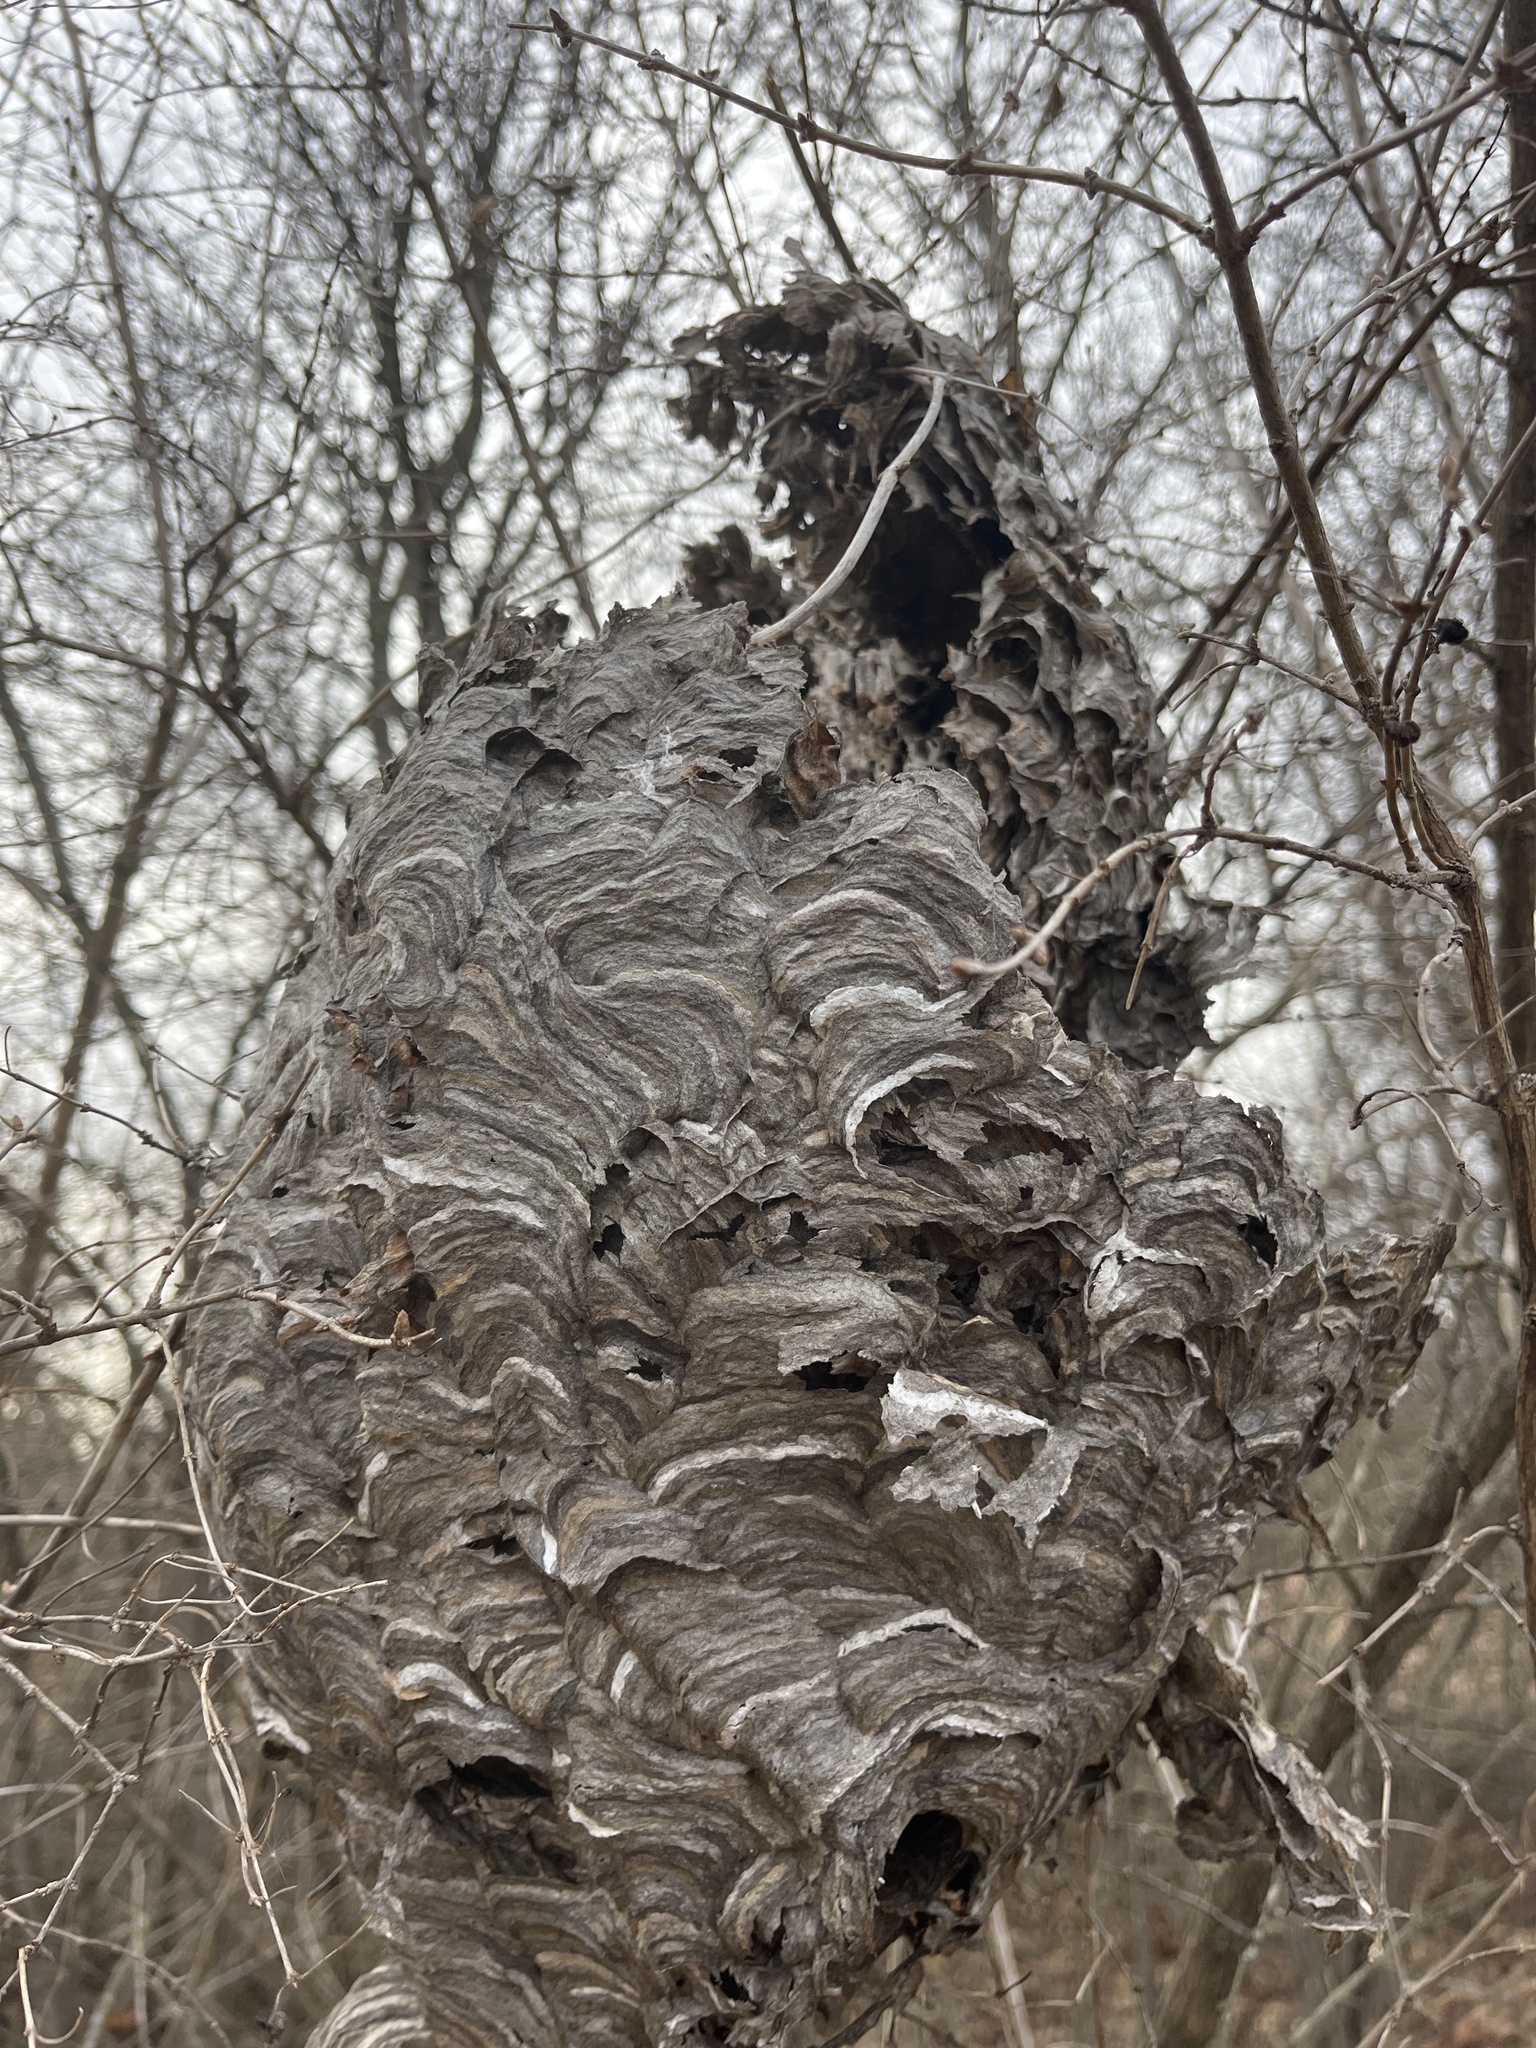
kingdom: Animalia
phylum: Arthropoda
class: Insecta
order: Hymenoptera
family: Vespidae
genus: Dolichovespula
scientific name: Dolichovespula maculata
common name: Bald-faced hornet
